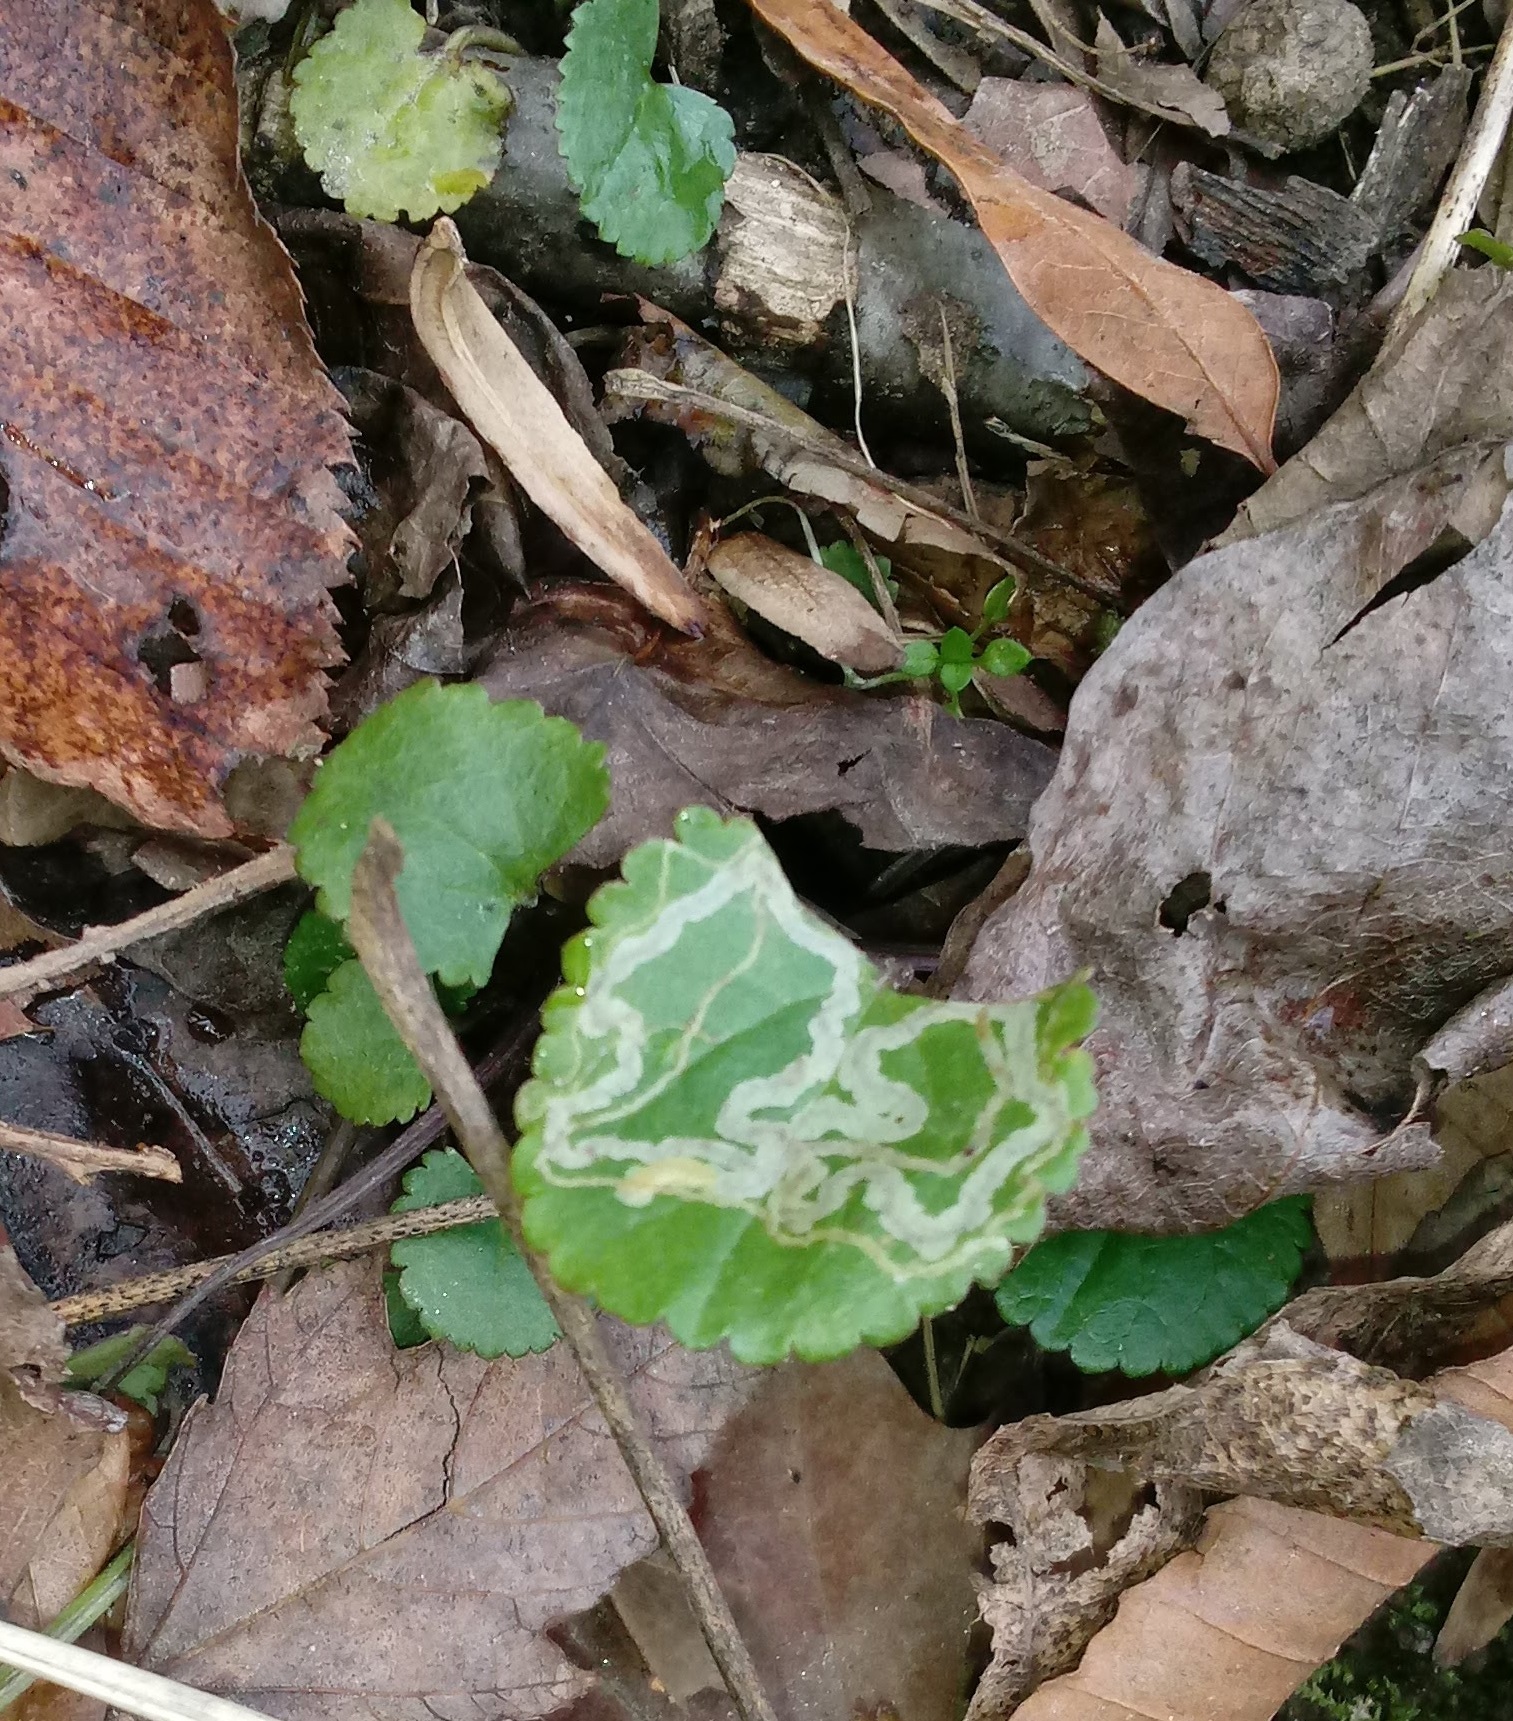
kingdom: Animalia
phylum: Arthropoda
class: Insecta
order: Lepidoptera
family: Gracillariidae
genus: Phyllocnistis
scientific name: Phyllocnistis insignis
